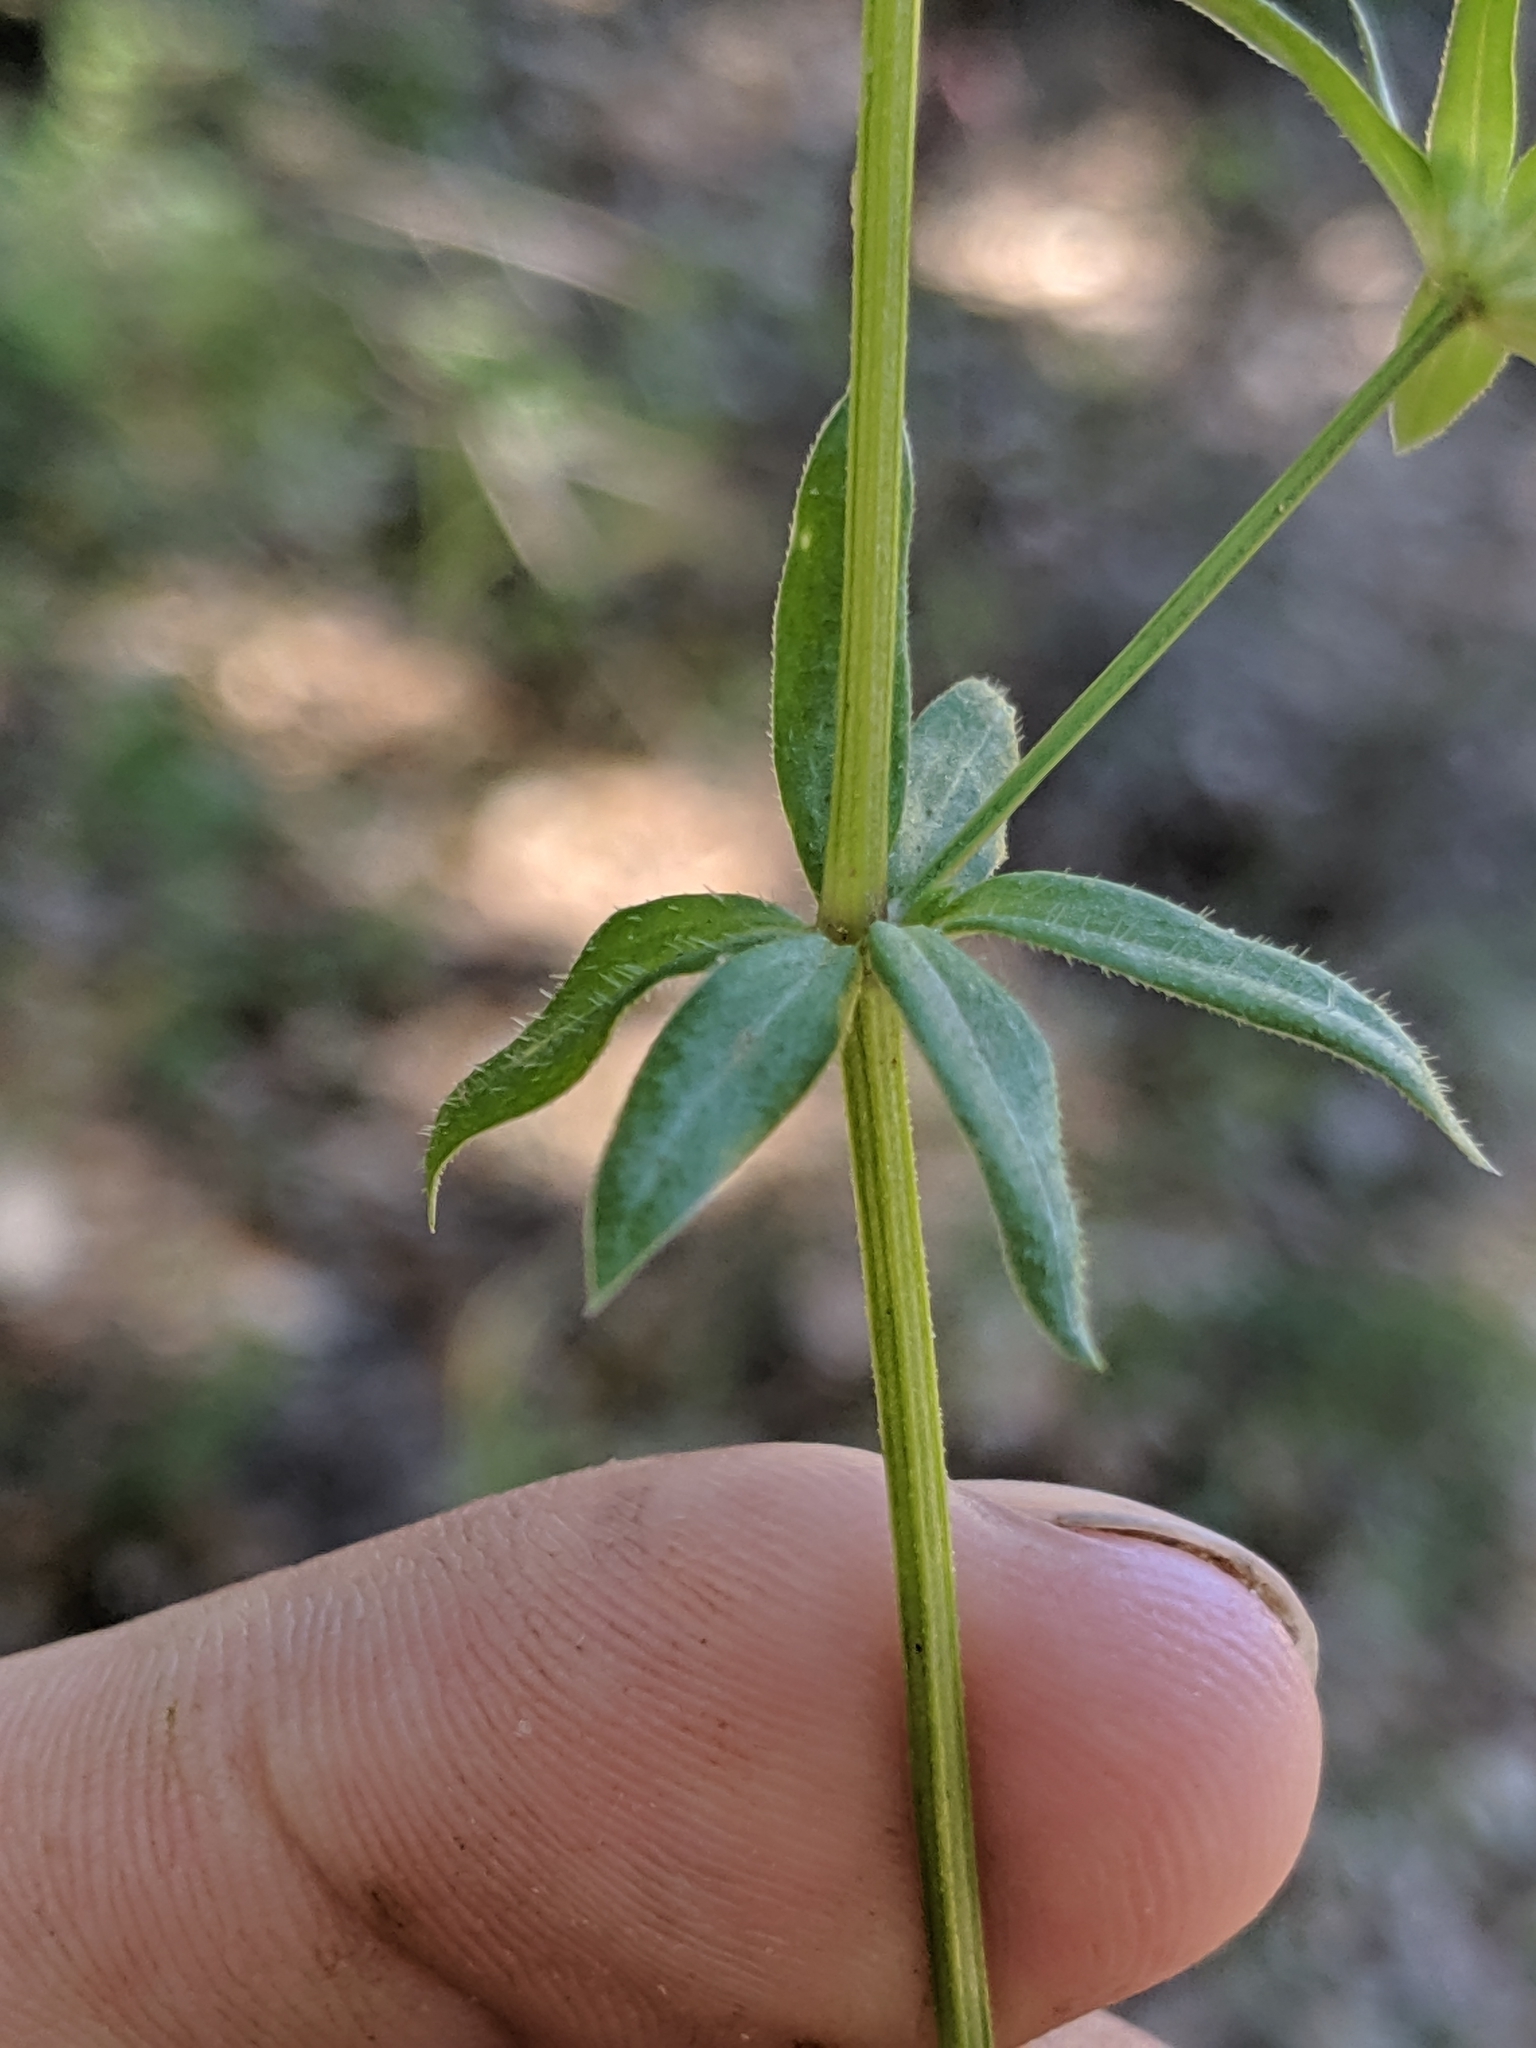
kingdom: Plantae
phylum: Tracheophyta
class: Magnoliopsida
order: Gentianales
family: Rubiaceae
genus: Sherardia
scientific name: Sherardia arvensis
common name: Field madder
